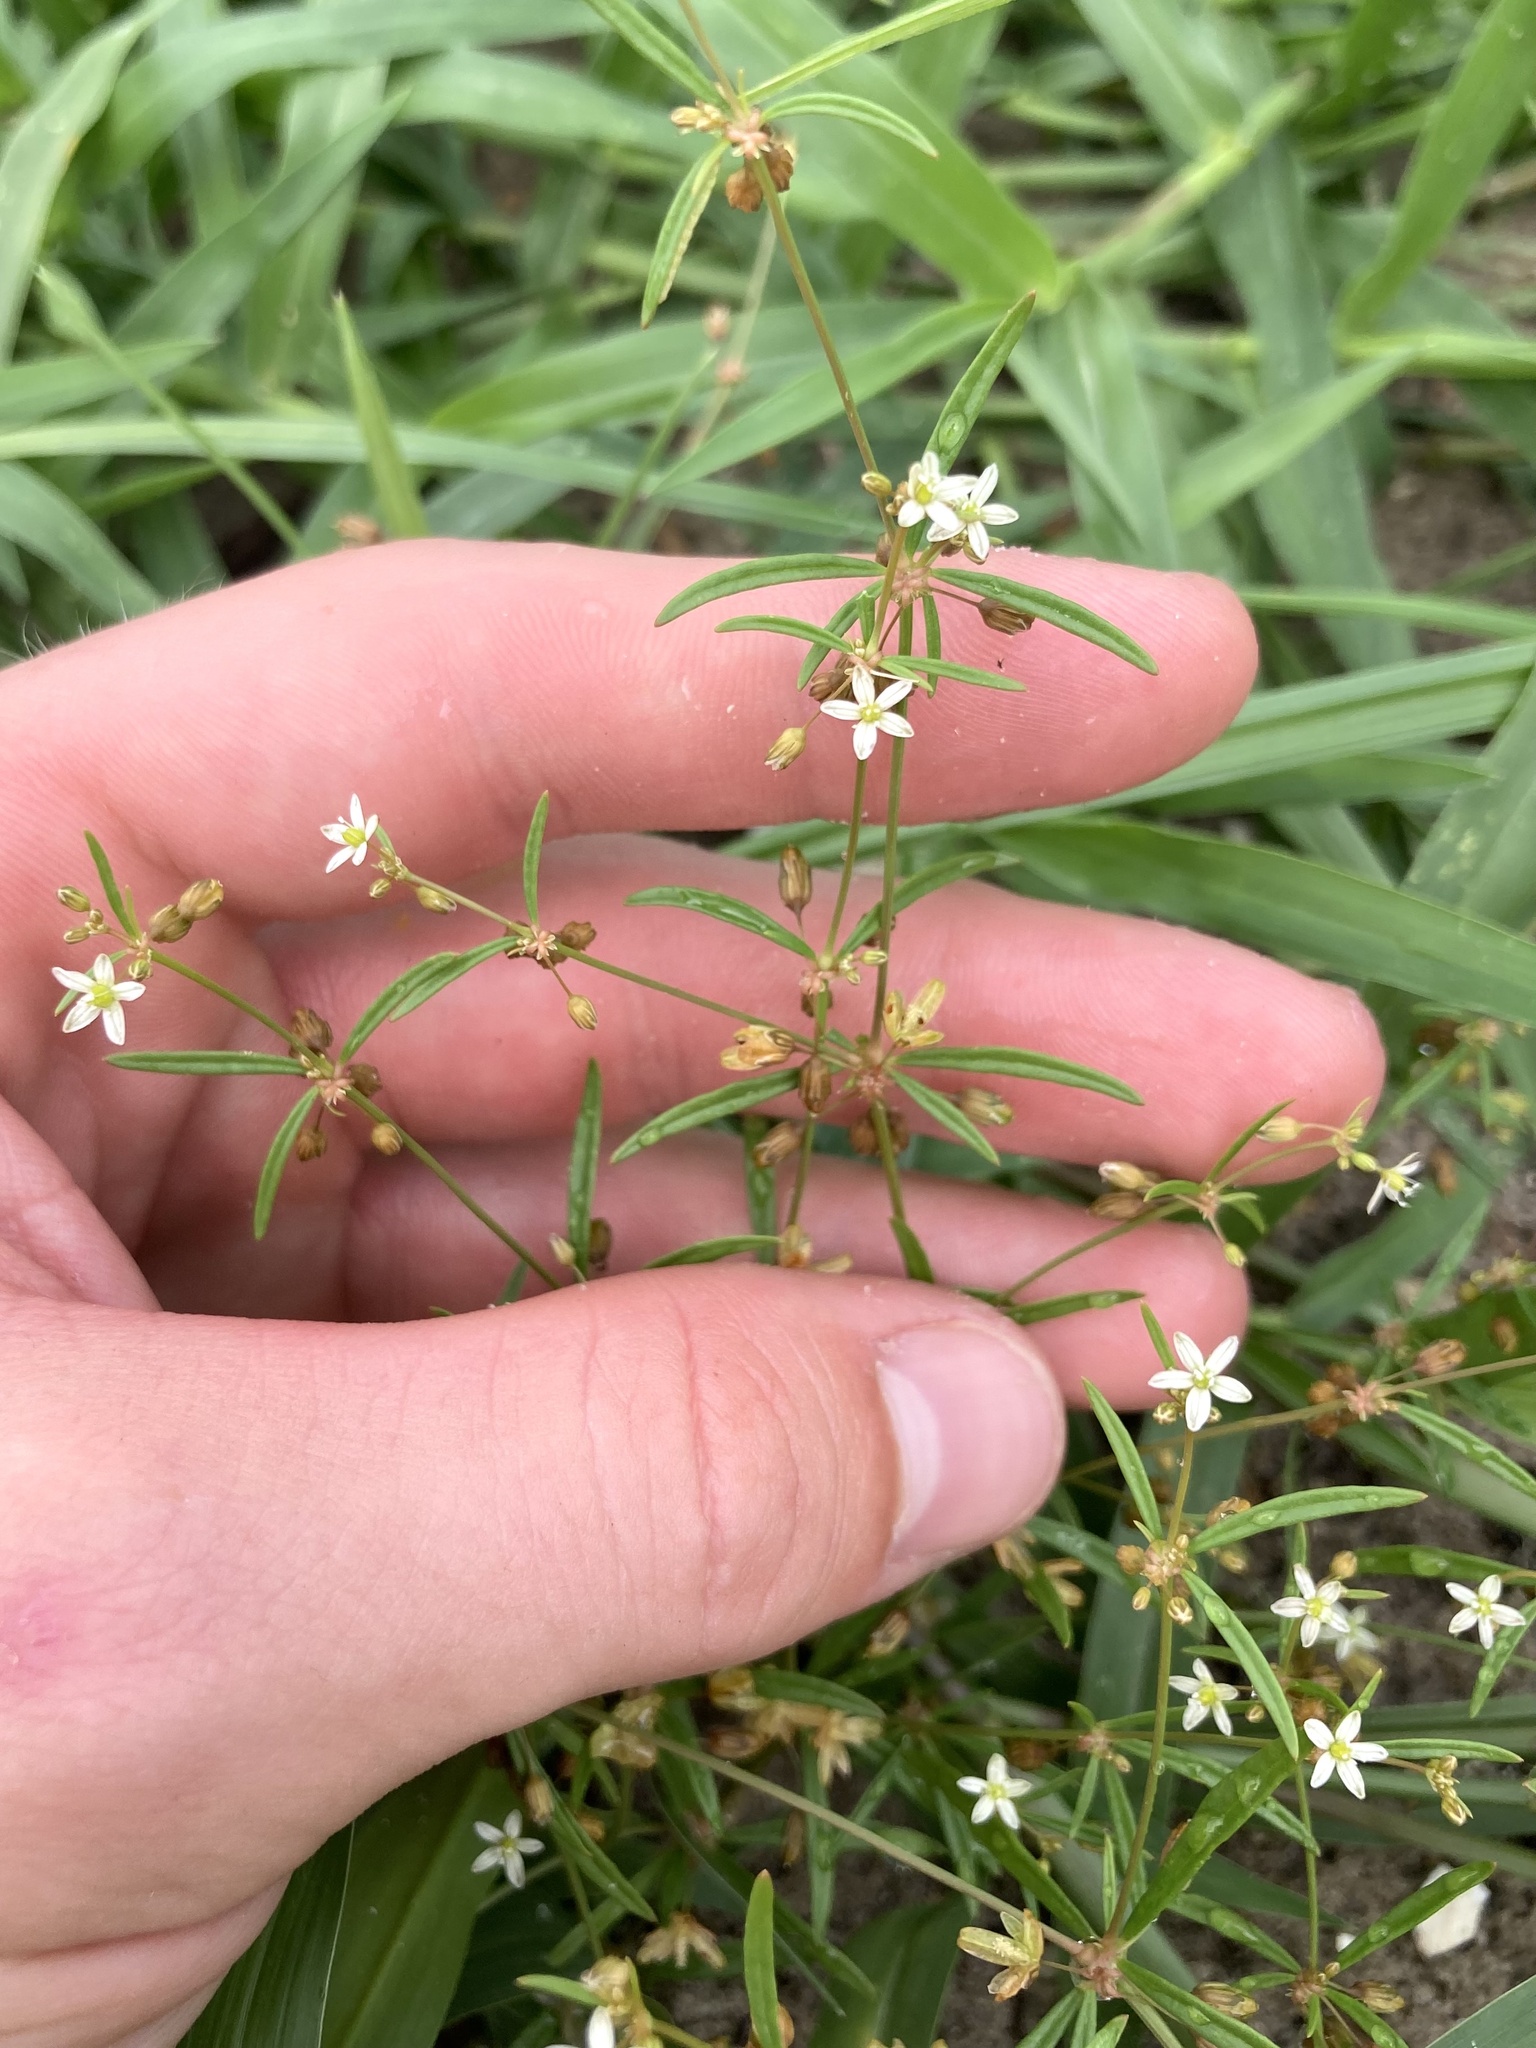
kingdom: Plantae
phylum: Tracheophyta
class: Magnoliopsida
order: Caryophyllales
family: Molluginaceae
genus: Mollugo
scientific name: Mollugo verticillata
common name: Green carpetweed
